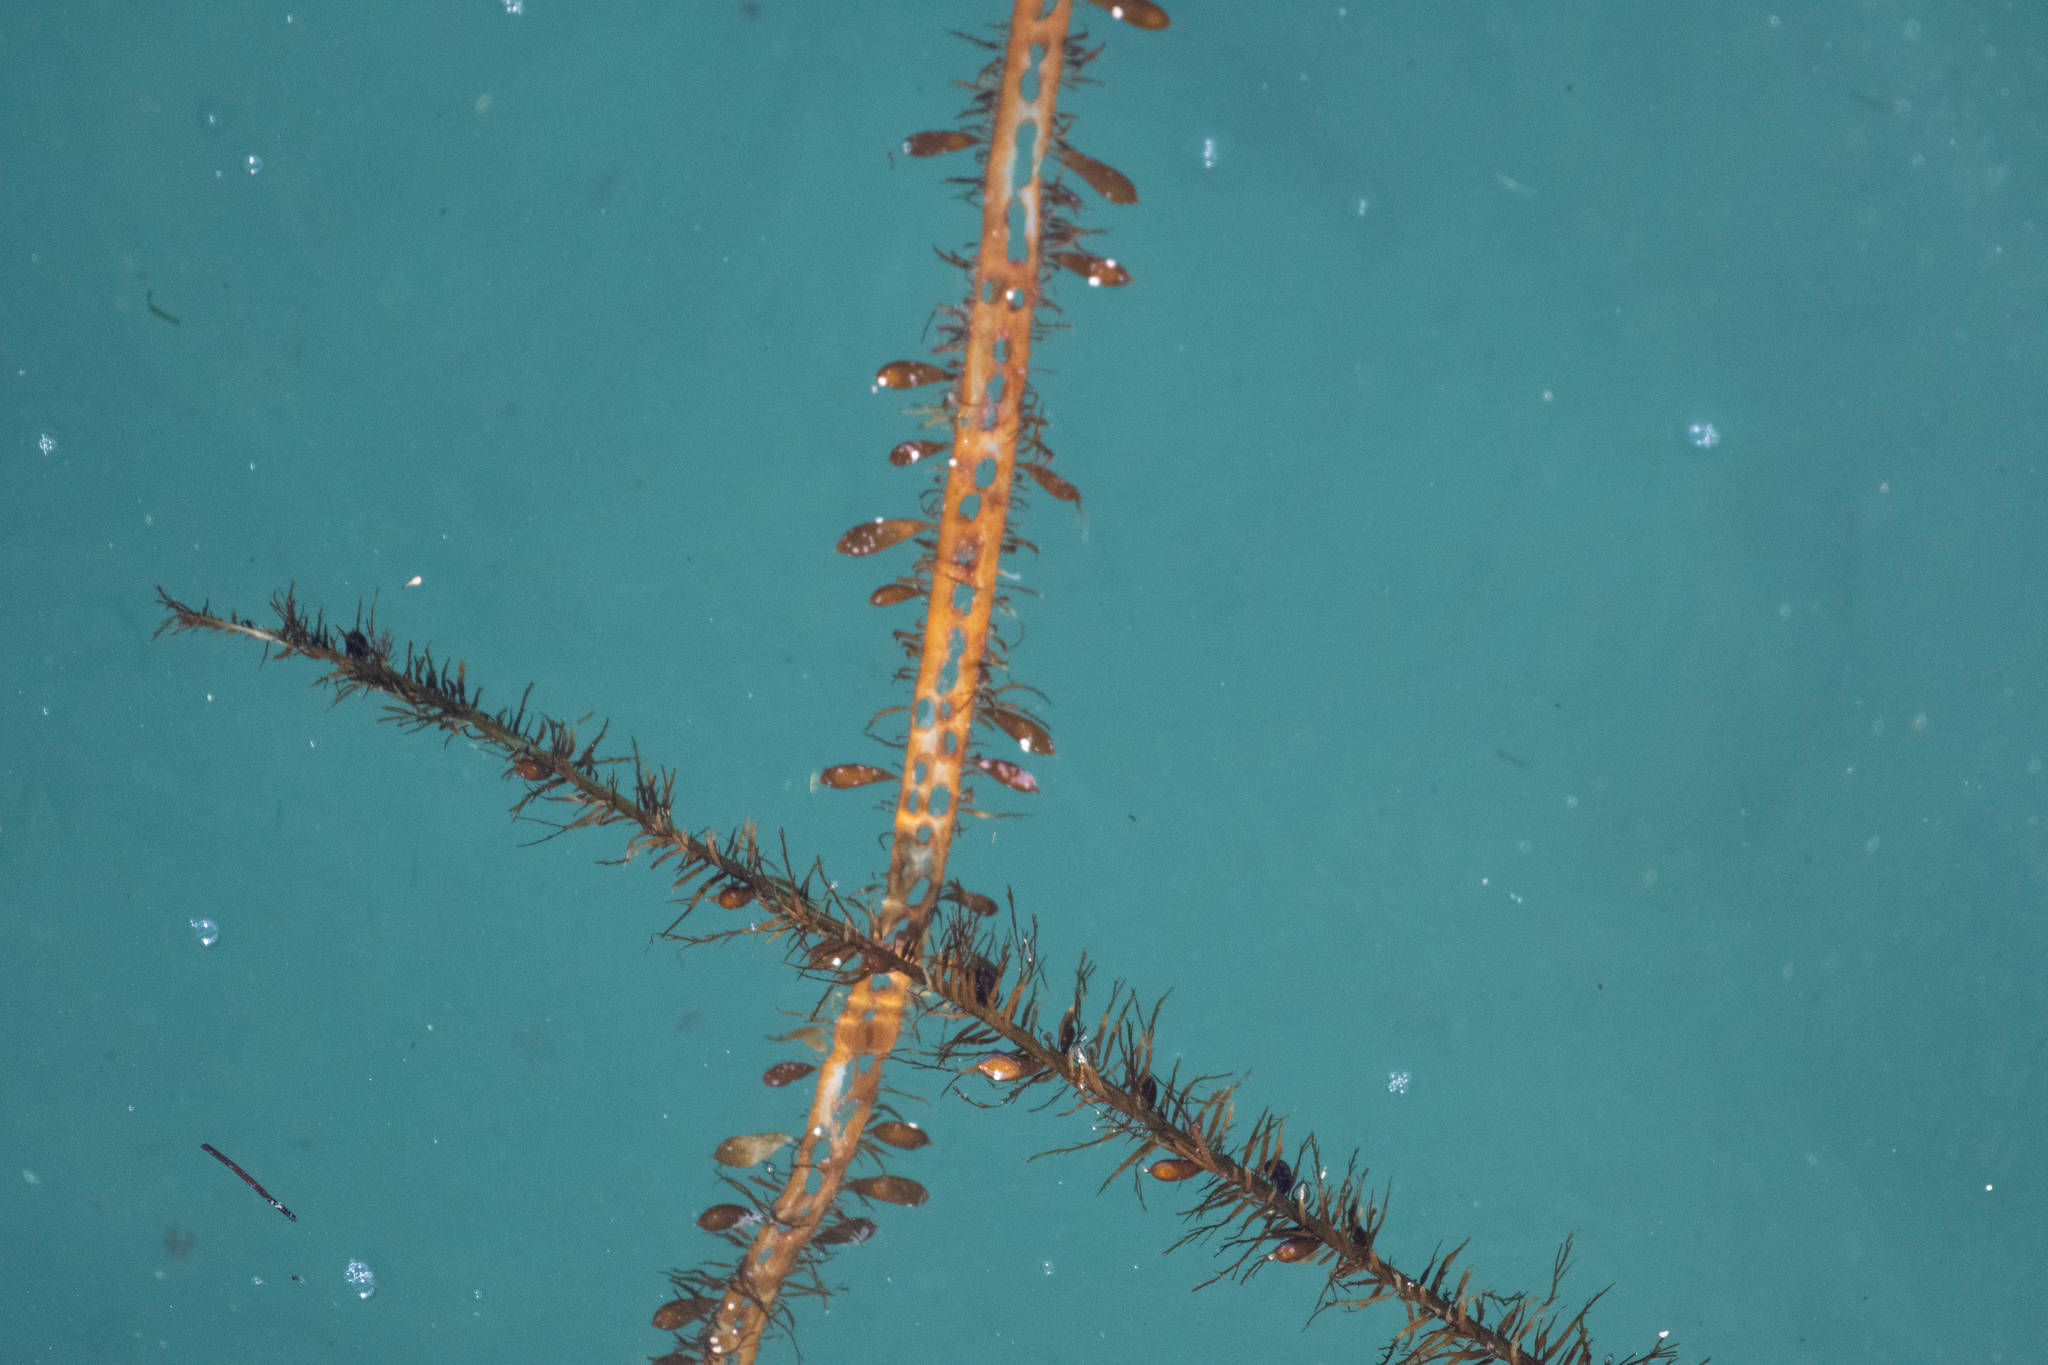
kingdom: Chromista
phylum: Ochrophyta
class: Phaeophyceae
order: Laminariales
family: Lessoniaceae
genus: Egregia
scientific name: Egregia menziesii
